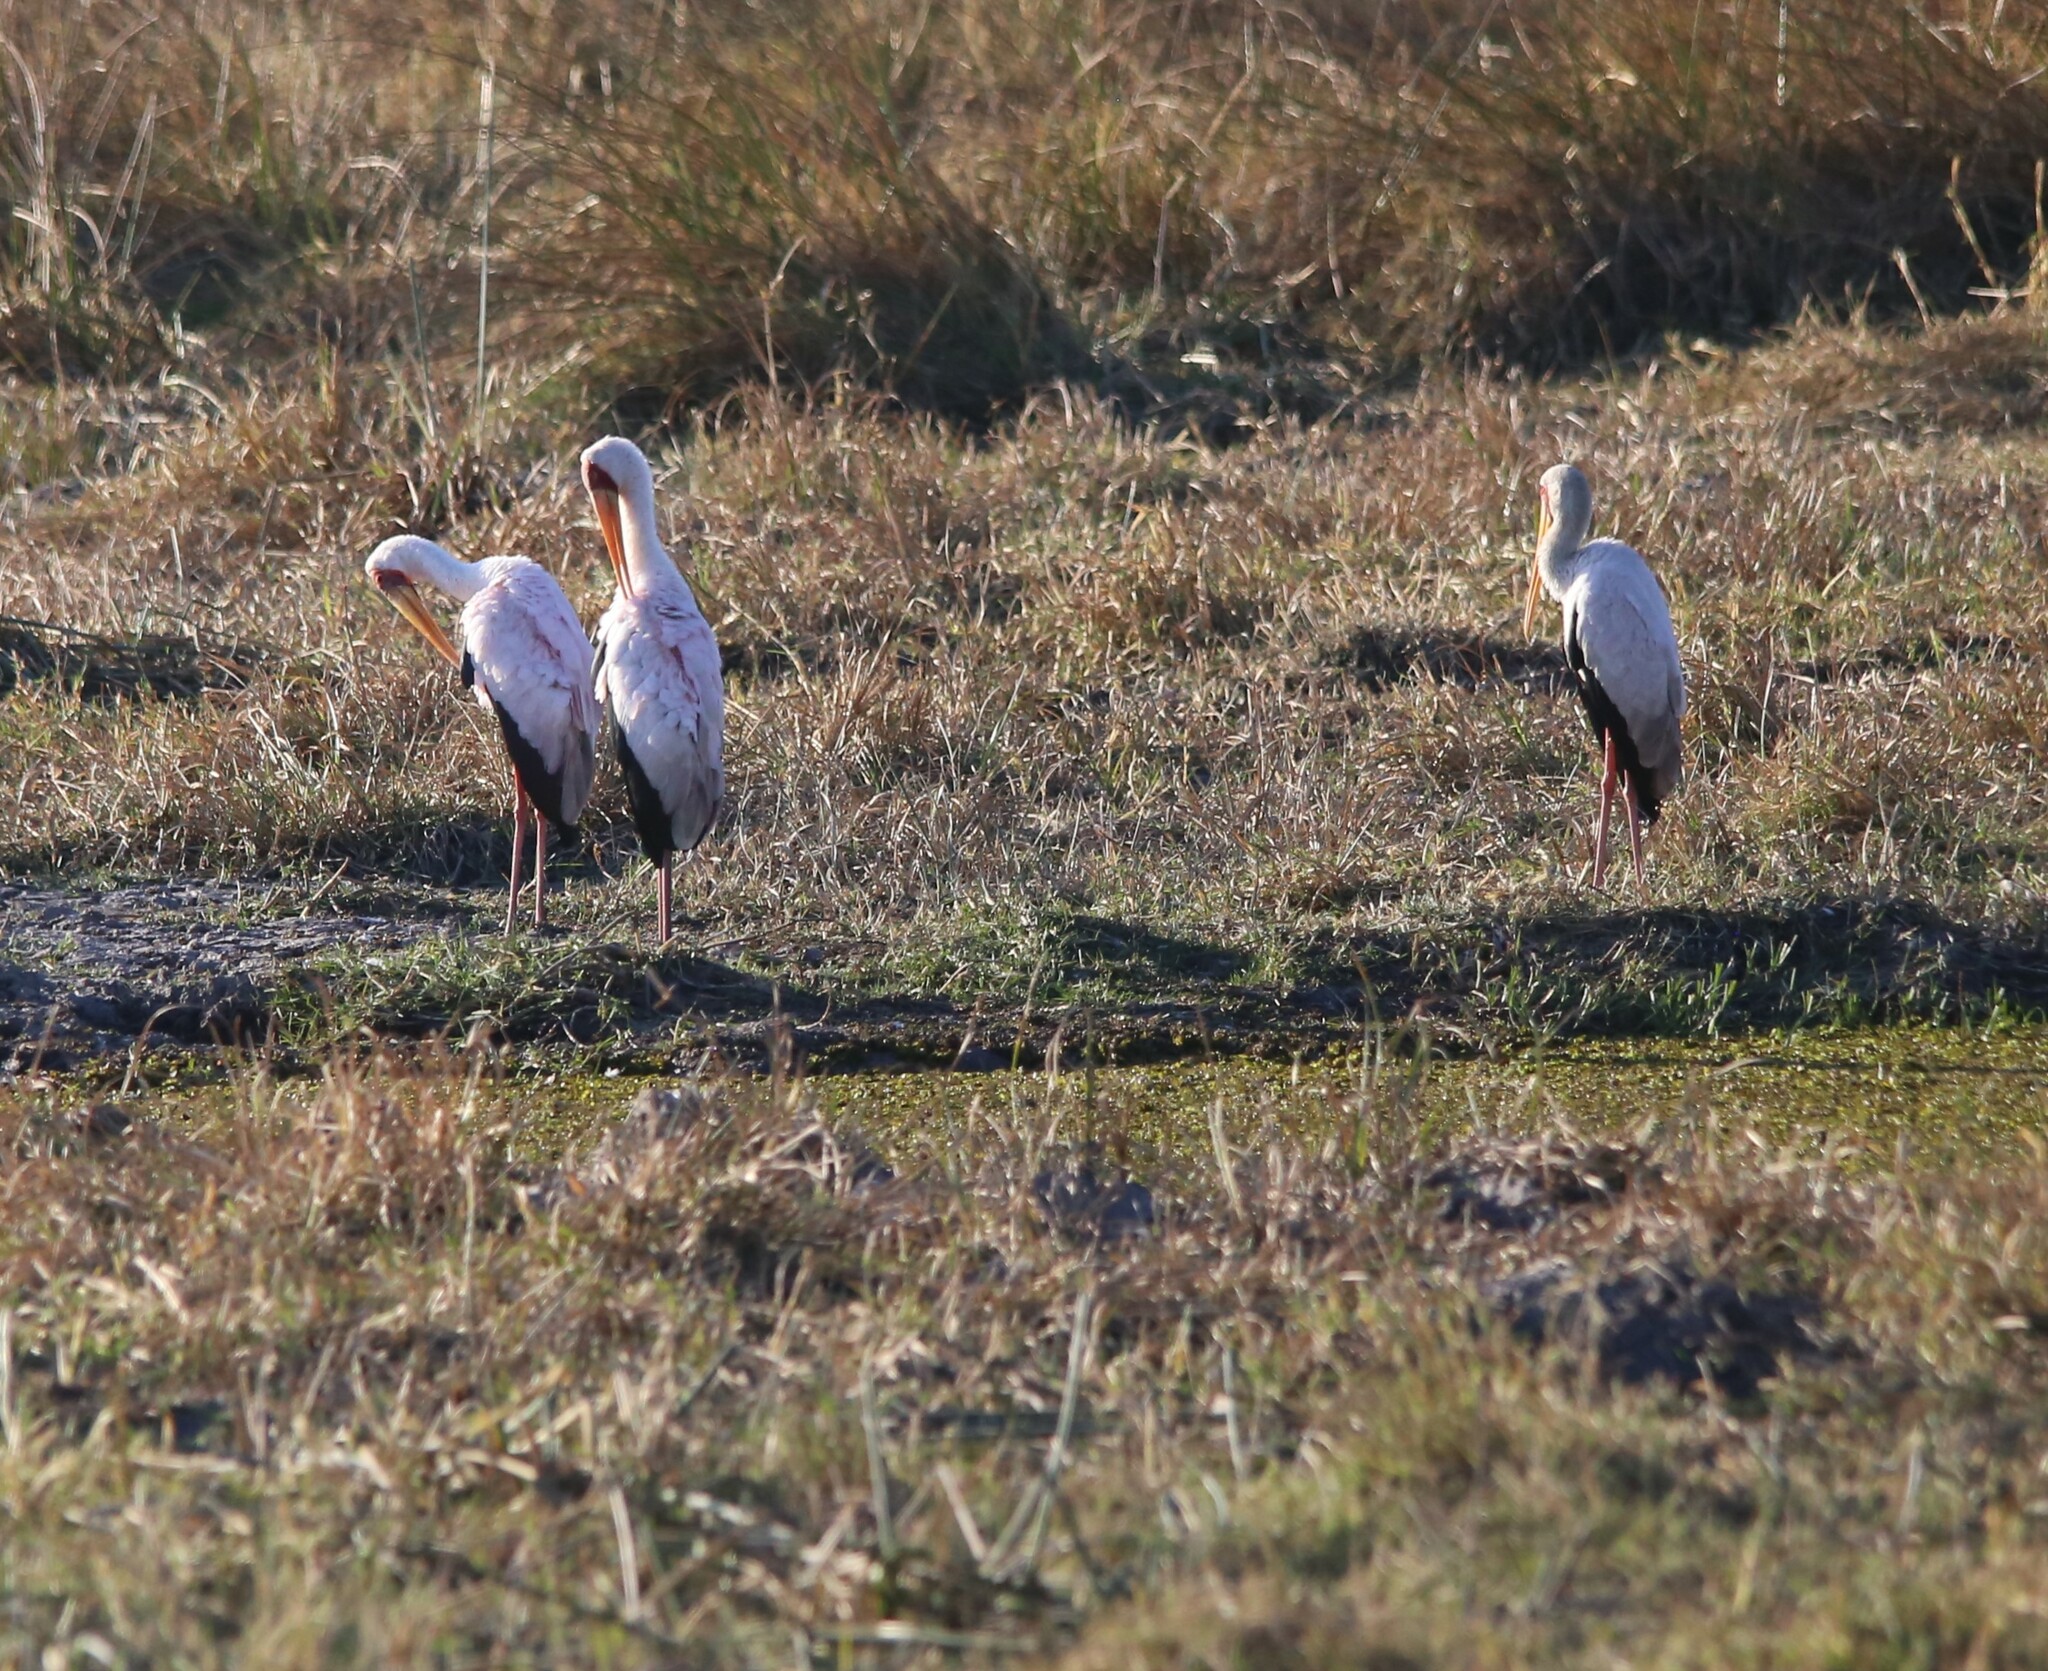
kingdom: Animalia
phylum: Chordata
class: Aves
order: Ciconiiformes
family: Ciconiidae
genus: Mycteria
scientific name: Mycteria ibis
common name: Yellow-billed stork
